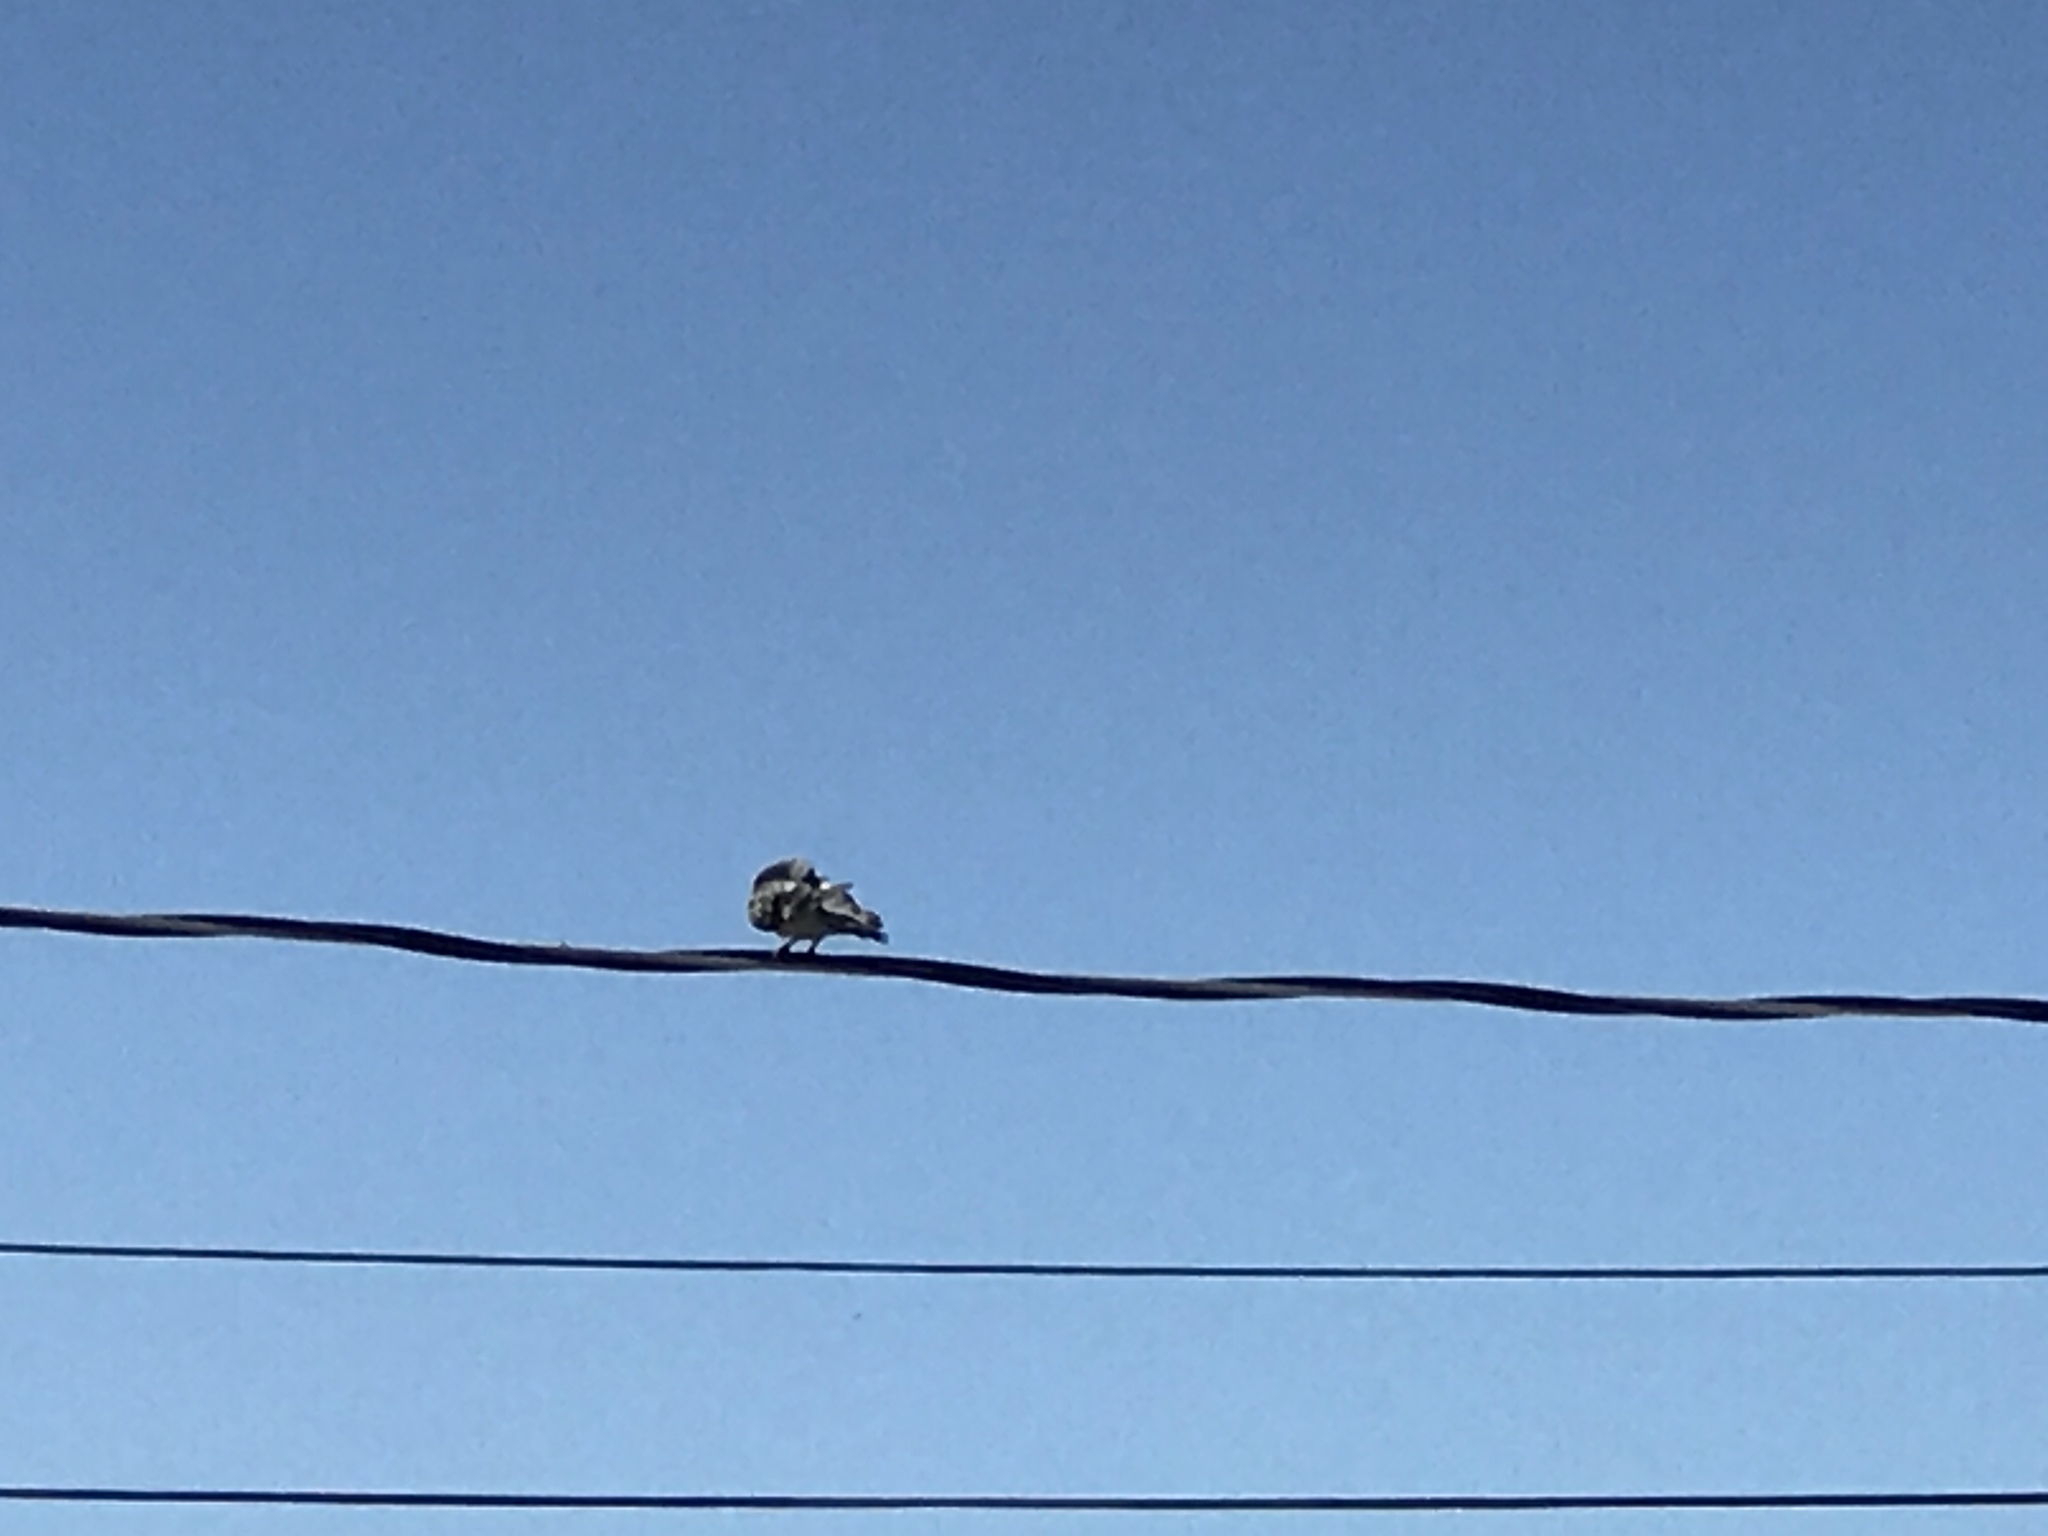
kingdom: Animalia
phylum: Chordata
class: Aves
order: Columbiformes
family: Columbidae
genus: Columba
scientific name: Columba livia
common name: Rock pigeon
